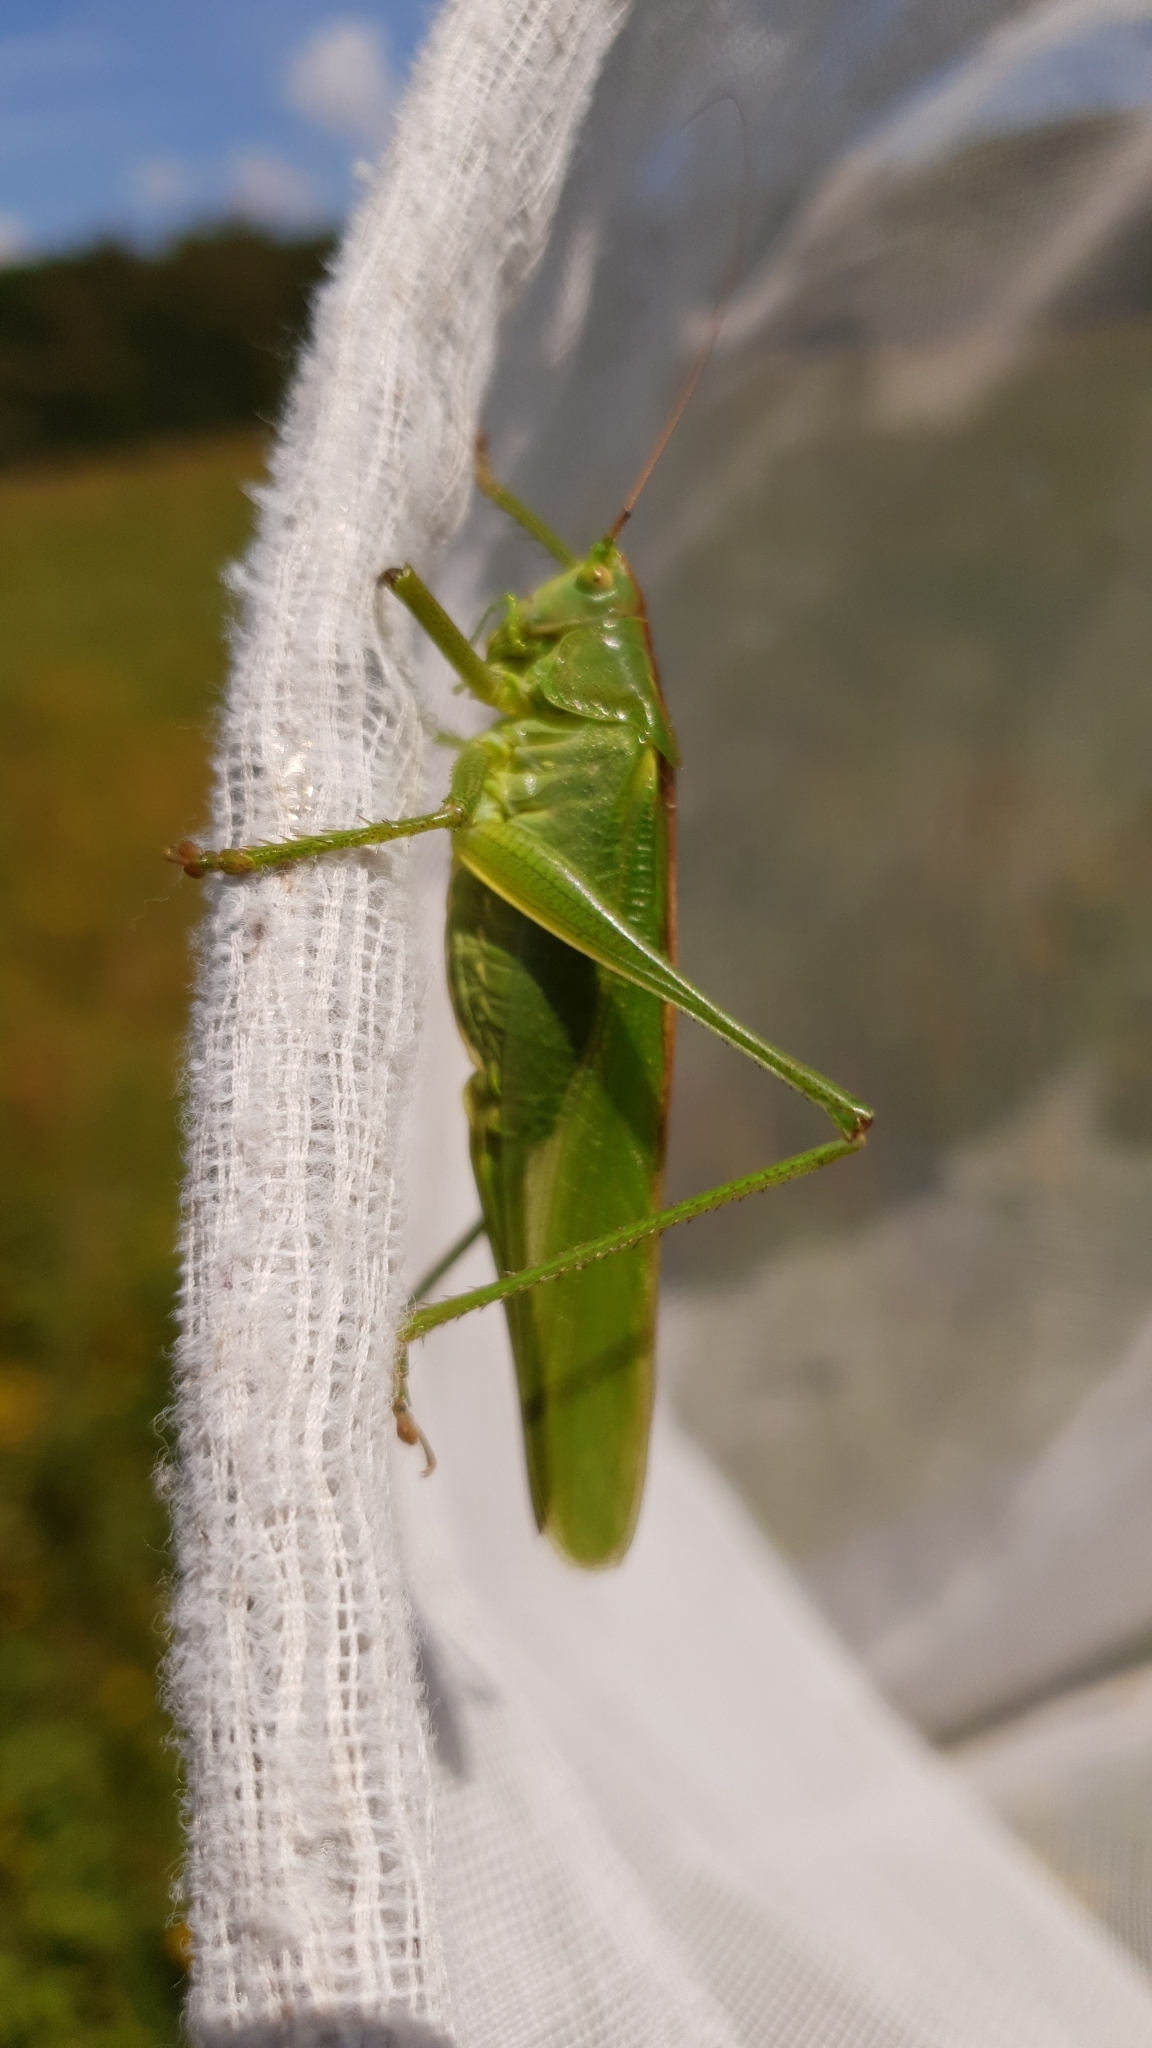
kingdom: Animalia
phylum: Arthropoda
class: Insecta
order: Orthoptera
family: Tettigoniidae
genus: Tettigonia
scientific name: Tettigonia viridissima
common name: Great green bush-cricket
